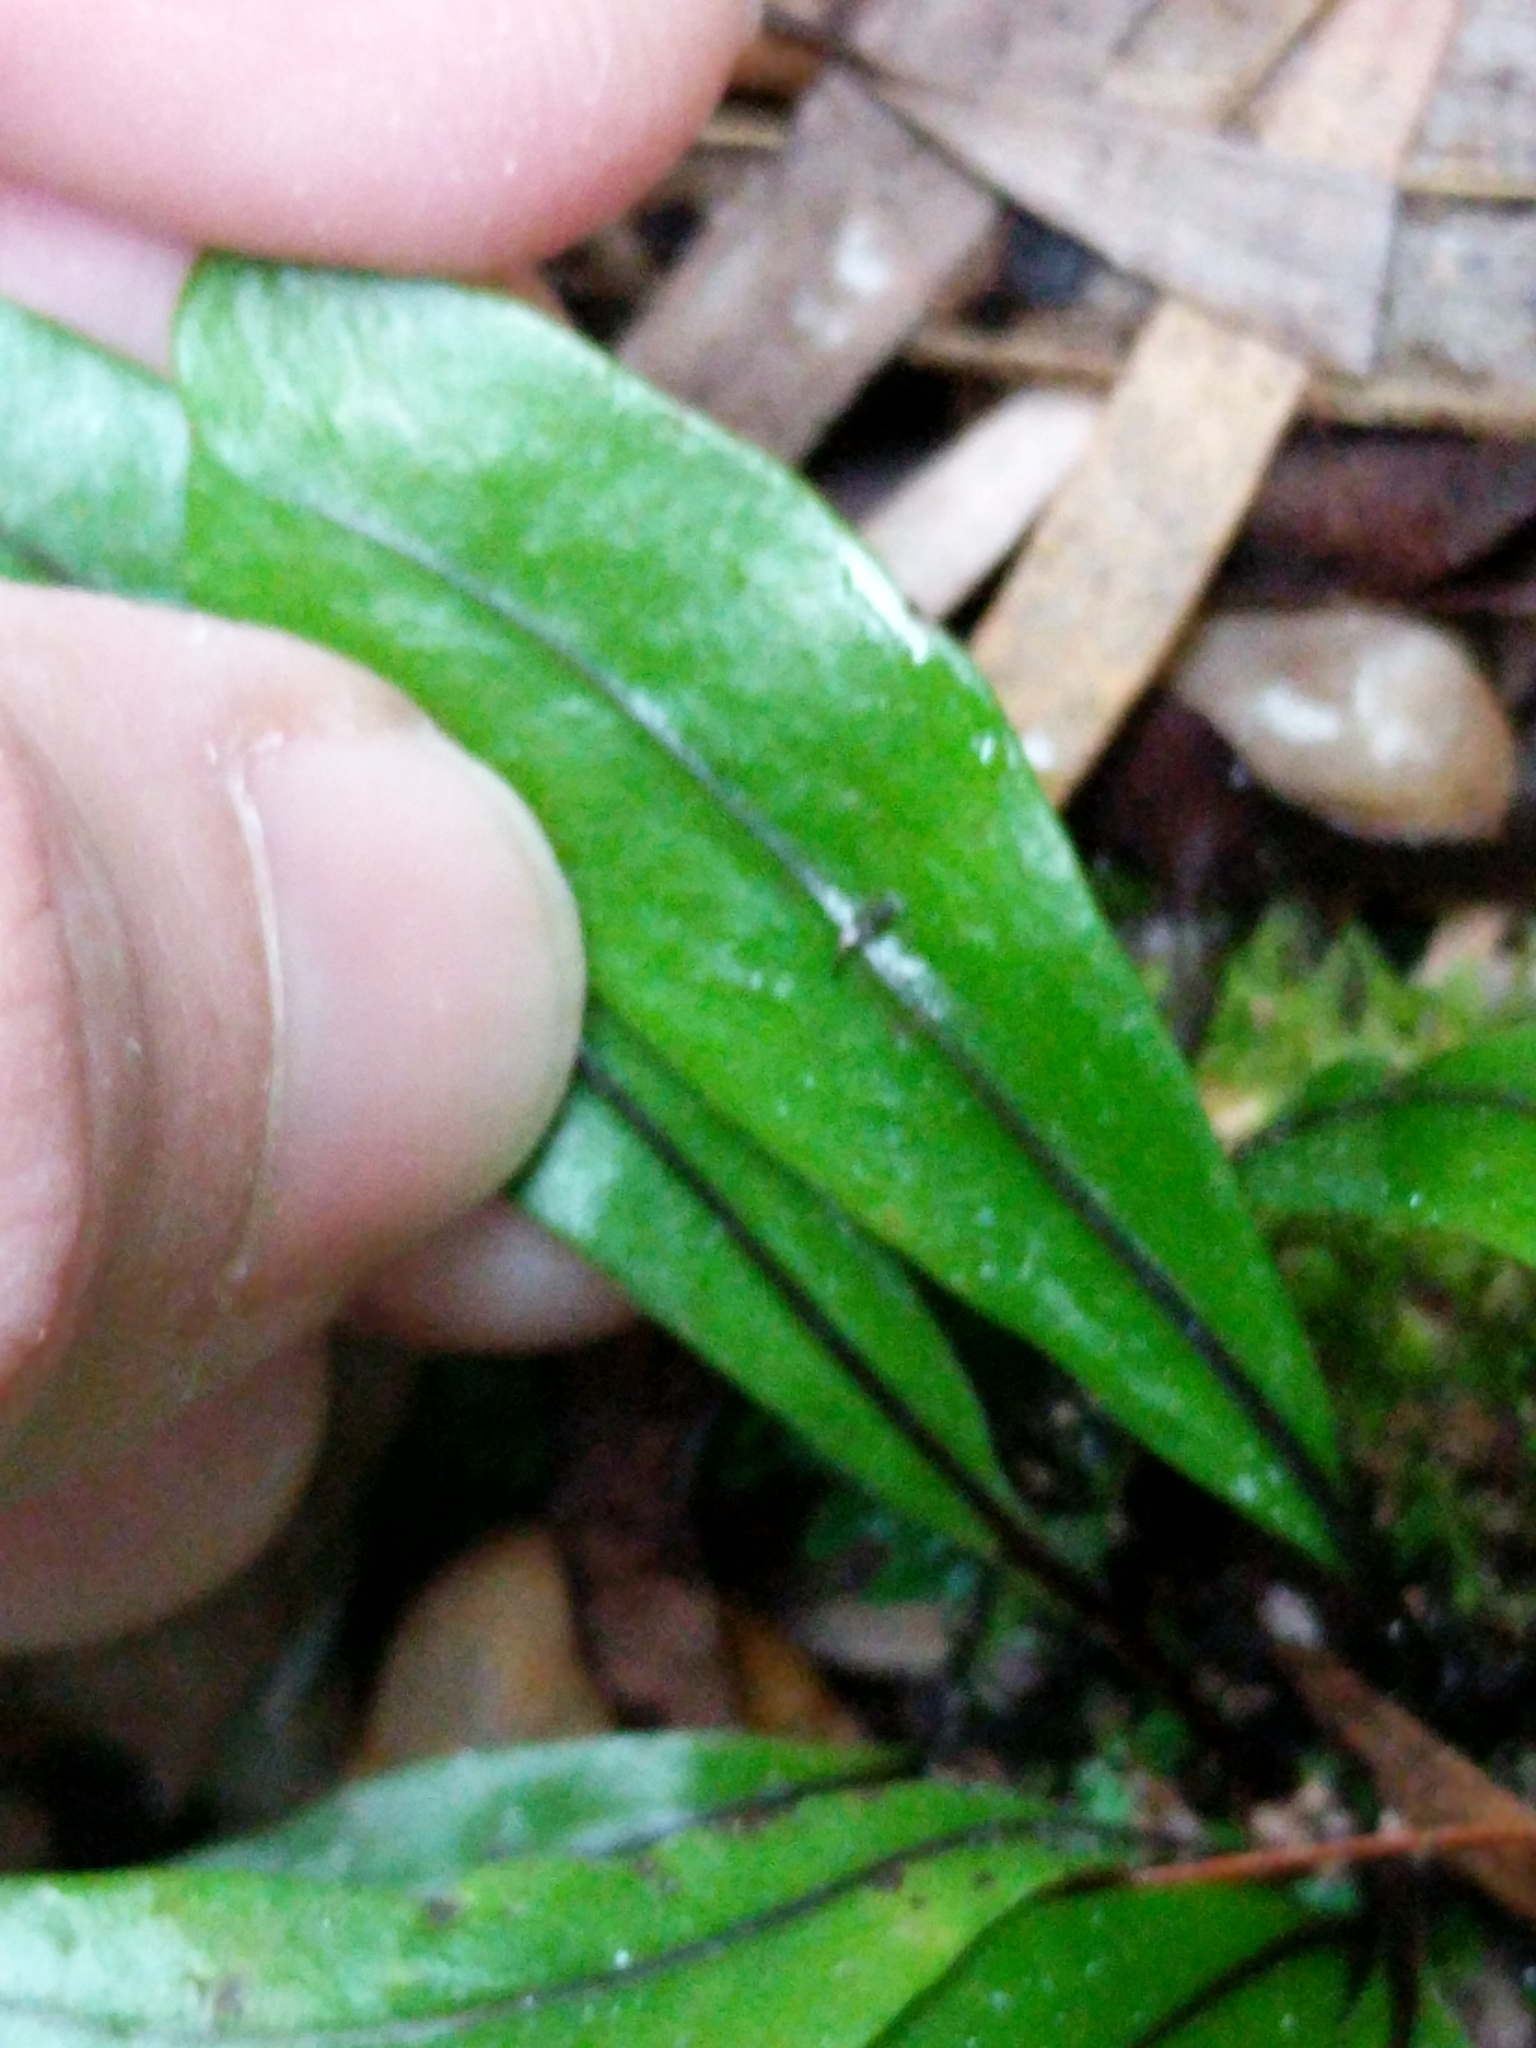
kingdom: Plantae
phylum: Tracheophyta
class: Polypodiopsida
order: Polypodiales
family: Polypodiaceae
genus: Microsorum
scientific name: Microsorum grossum
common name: Musk fern
